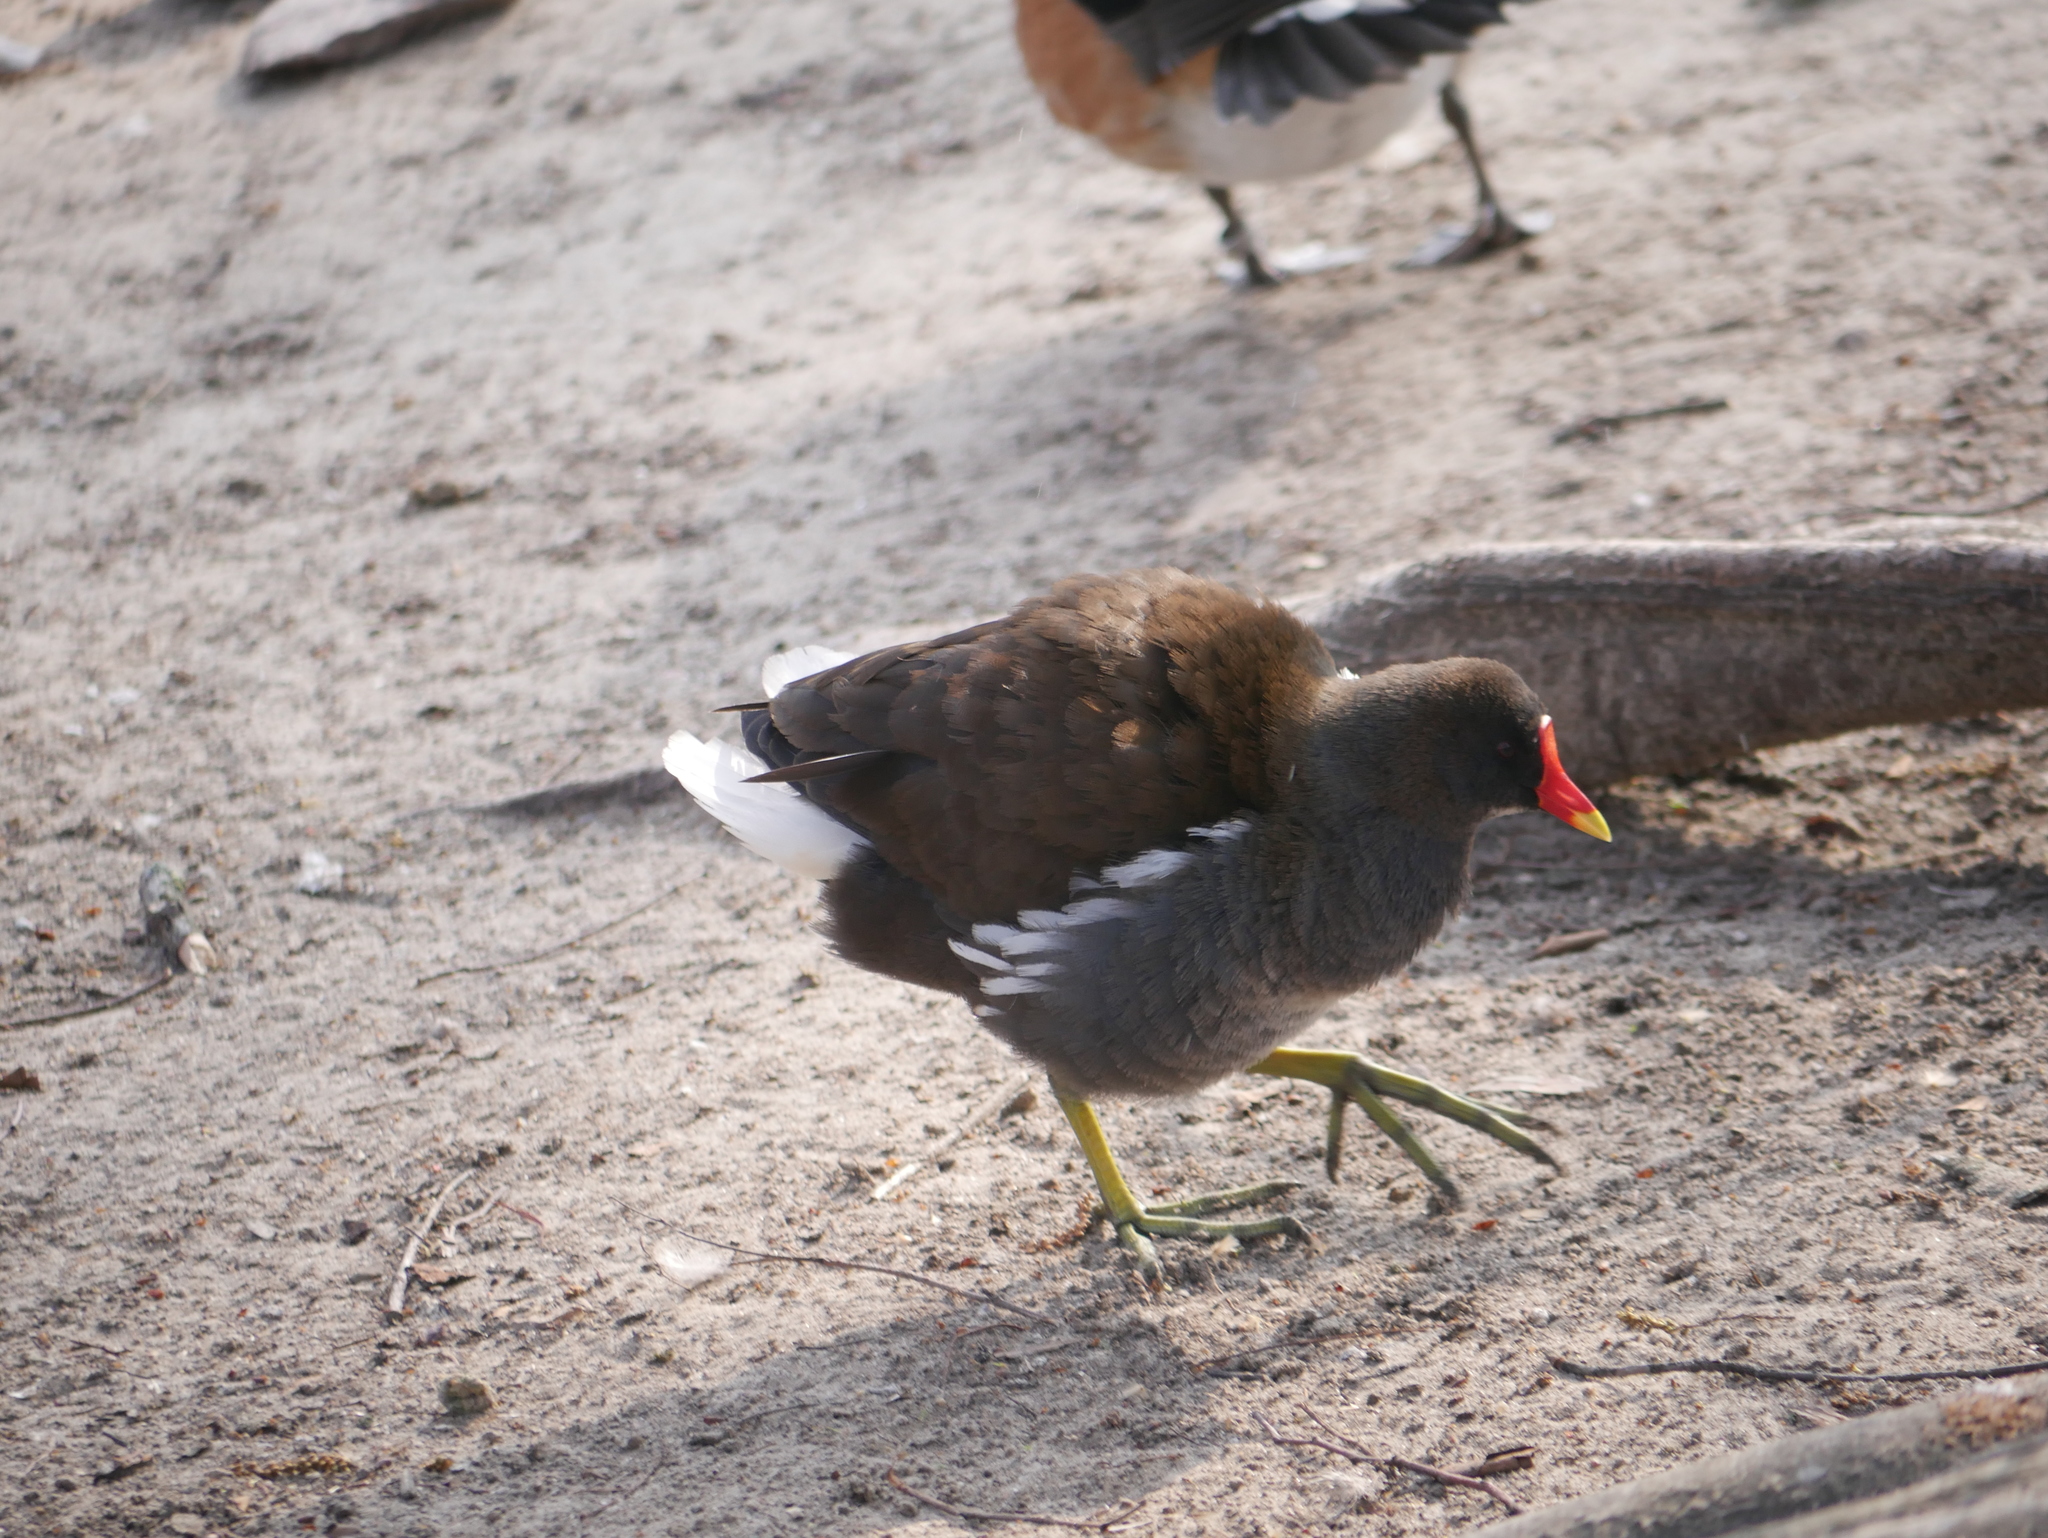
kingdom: Animalia
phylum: Chordata
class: Aves
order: Gruiformes
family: Rallidae
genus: Gallinula
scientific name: Gallinula chloropus
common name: Common moorhen
